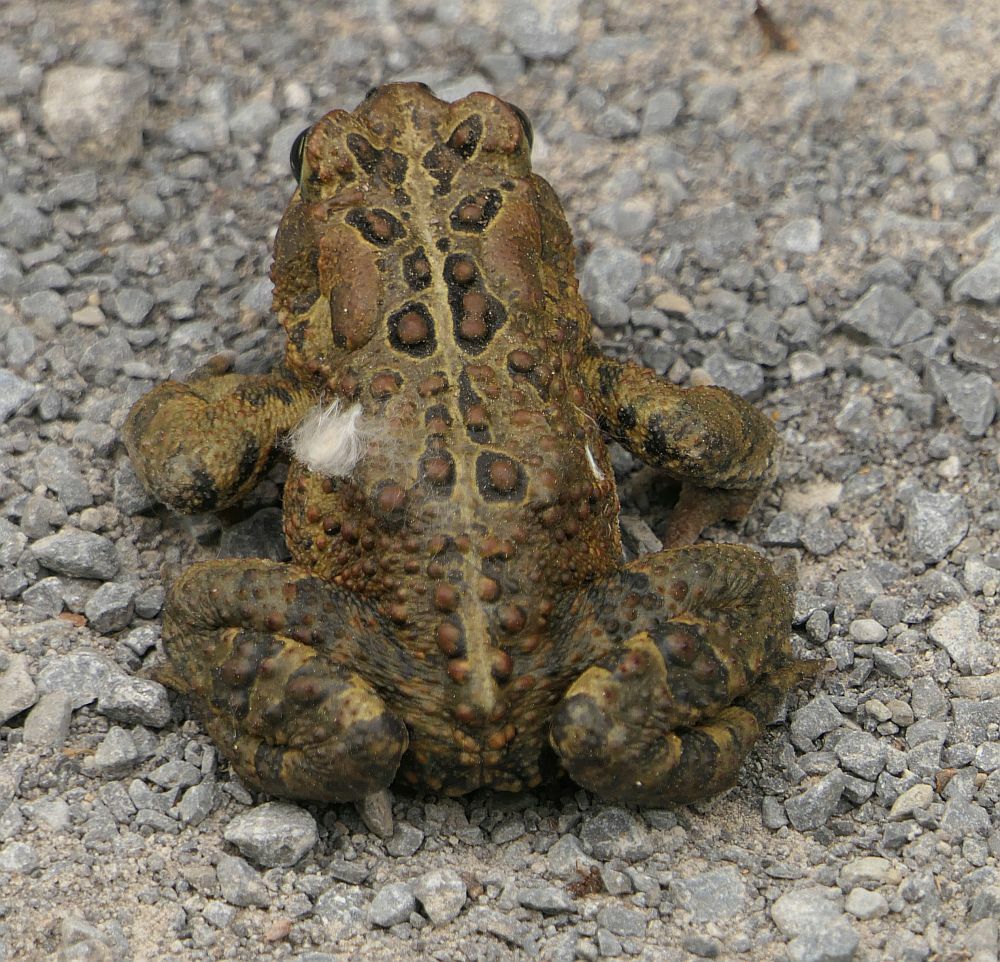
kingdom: Animalia
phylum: Chordata
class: Amphibia
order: Anura
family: Bufonidae
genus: Anaxyrus
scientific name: Anaxyrus americanus
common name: American toad
